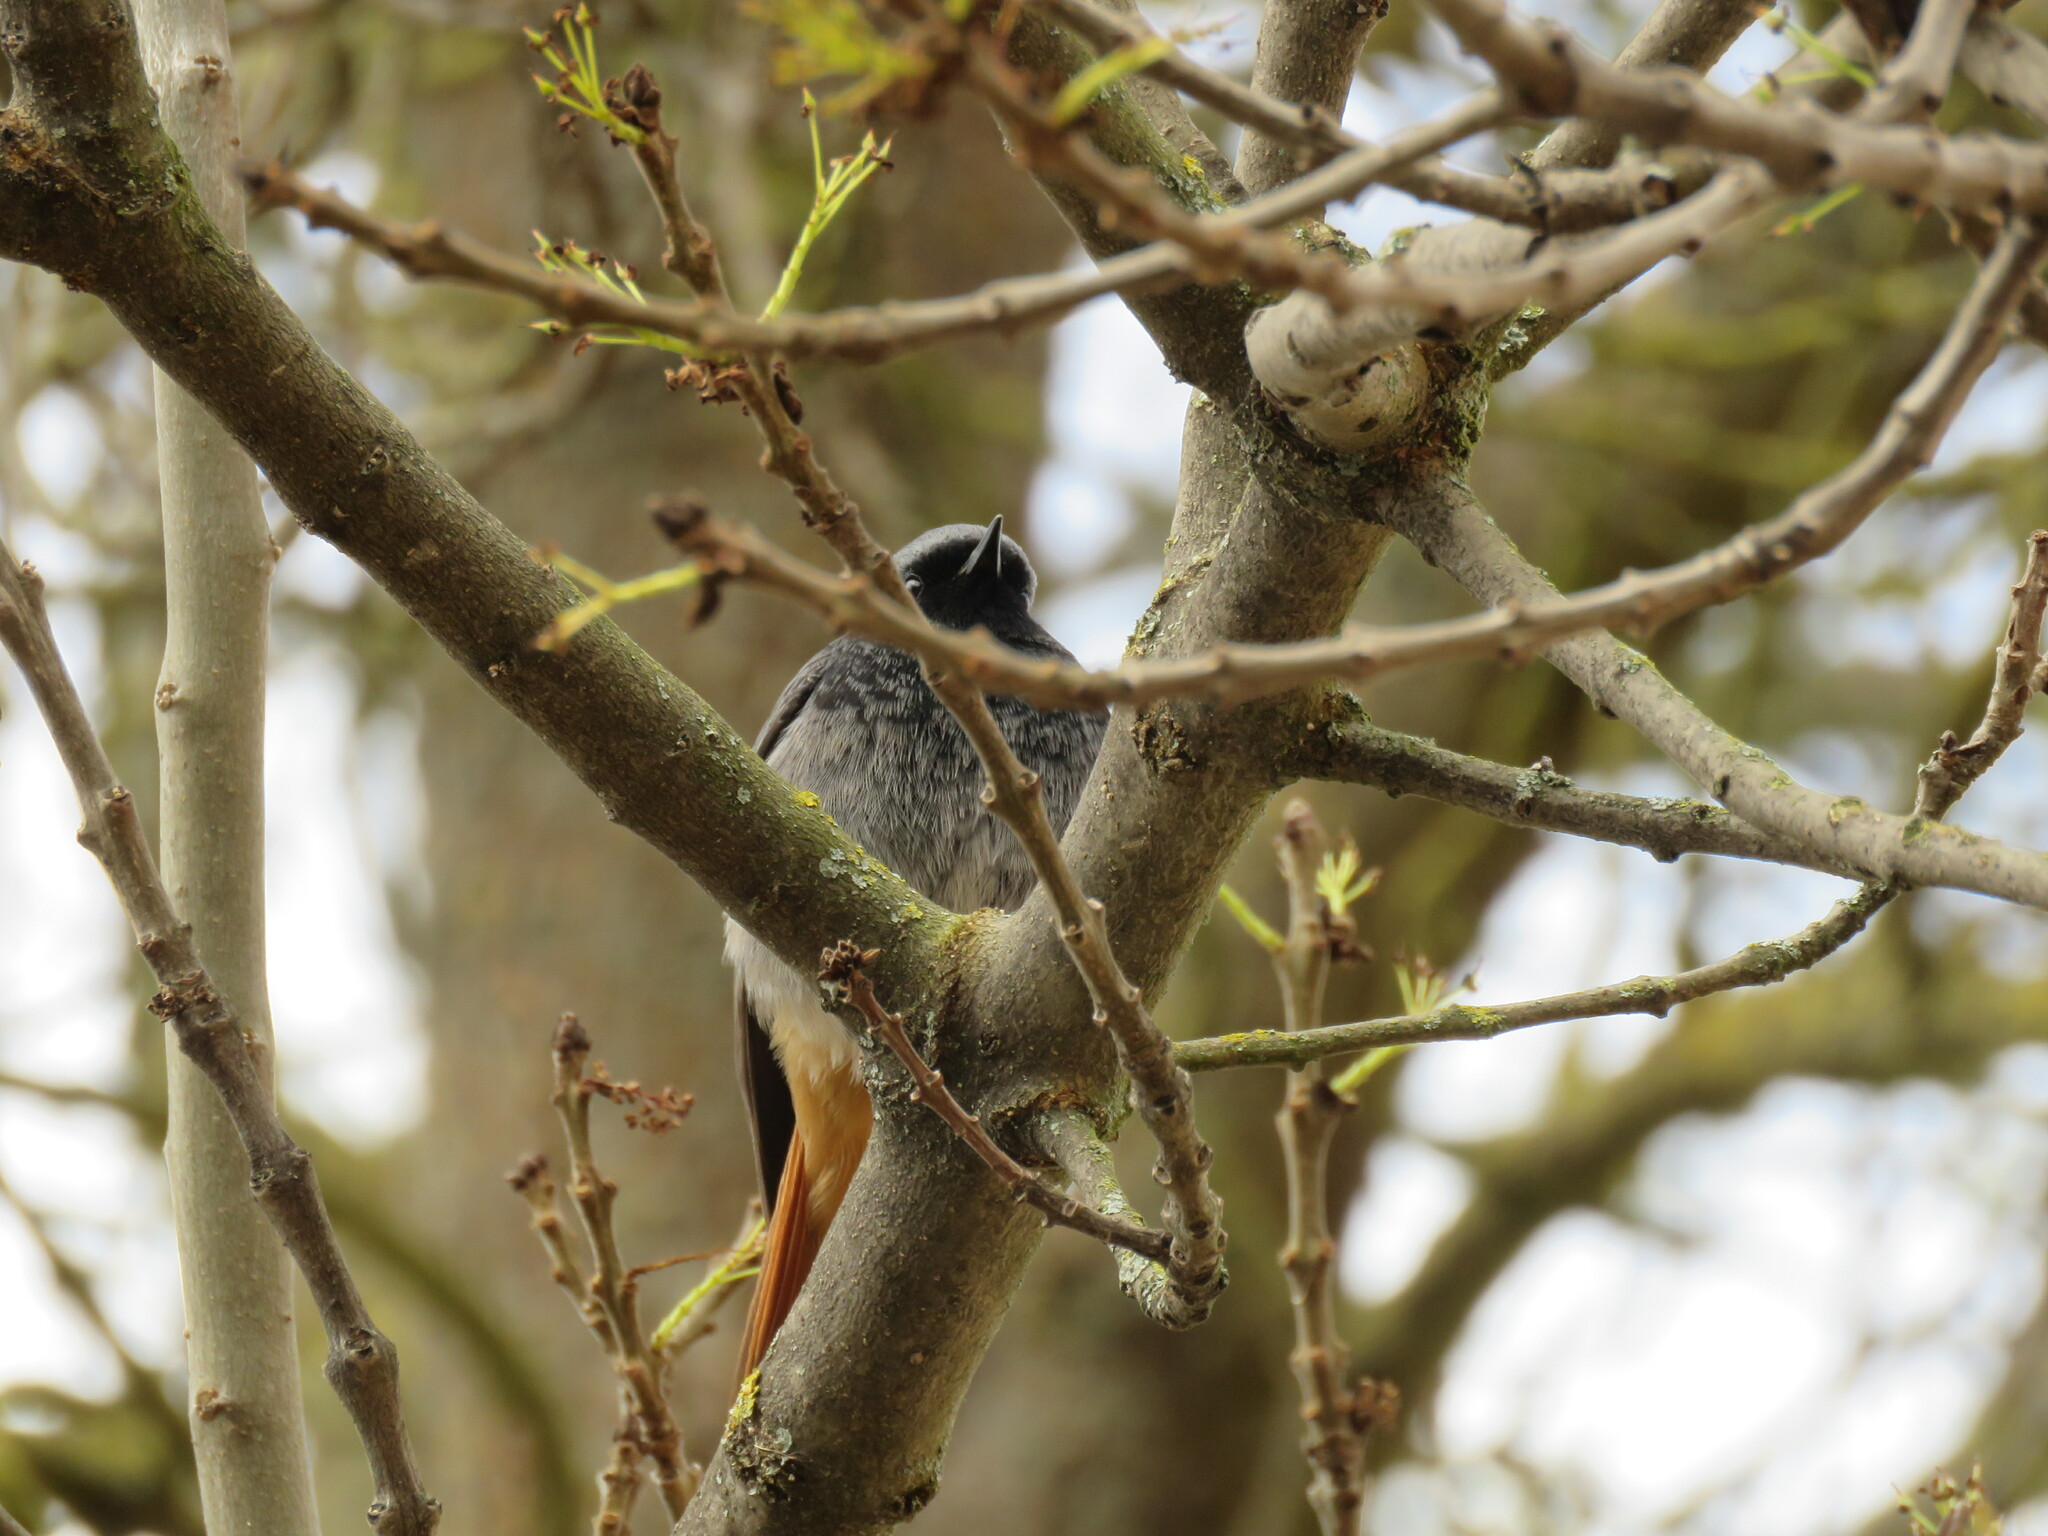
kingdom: Animalia
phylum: Chordata
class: Aves
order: Passeriformes
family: Muscicapidae
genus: Phoenicurus
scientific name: Phoenicurus ochruros
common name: Black redstart
